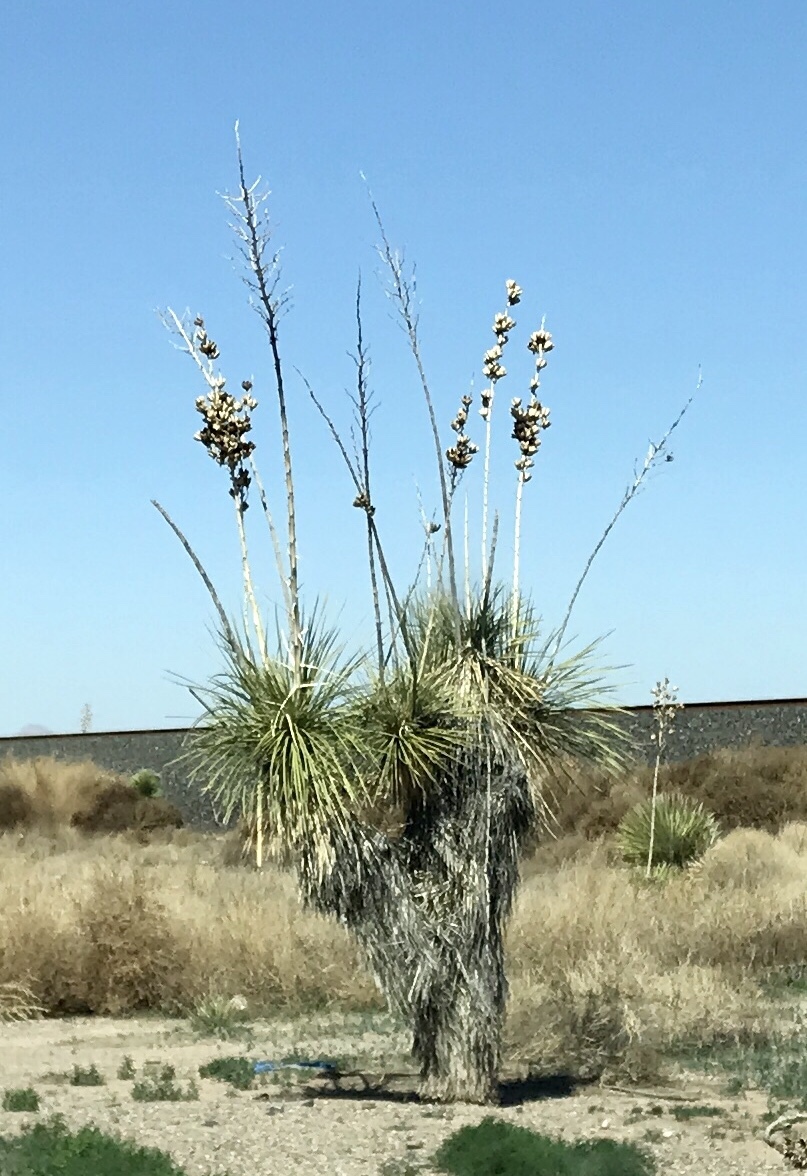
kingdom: Plantae
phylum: Tracheophyta
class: Liliopsida
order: Asparagales
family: Asparagaceae
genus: Yucca
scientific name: Yucca elata
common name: Palmella
